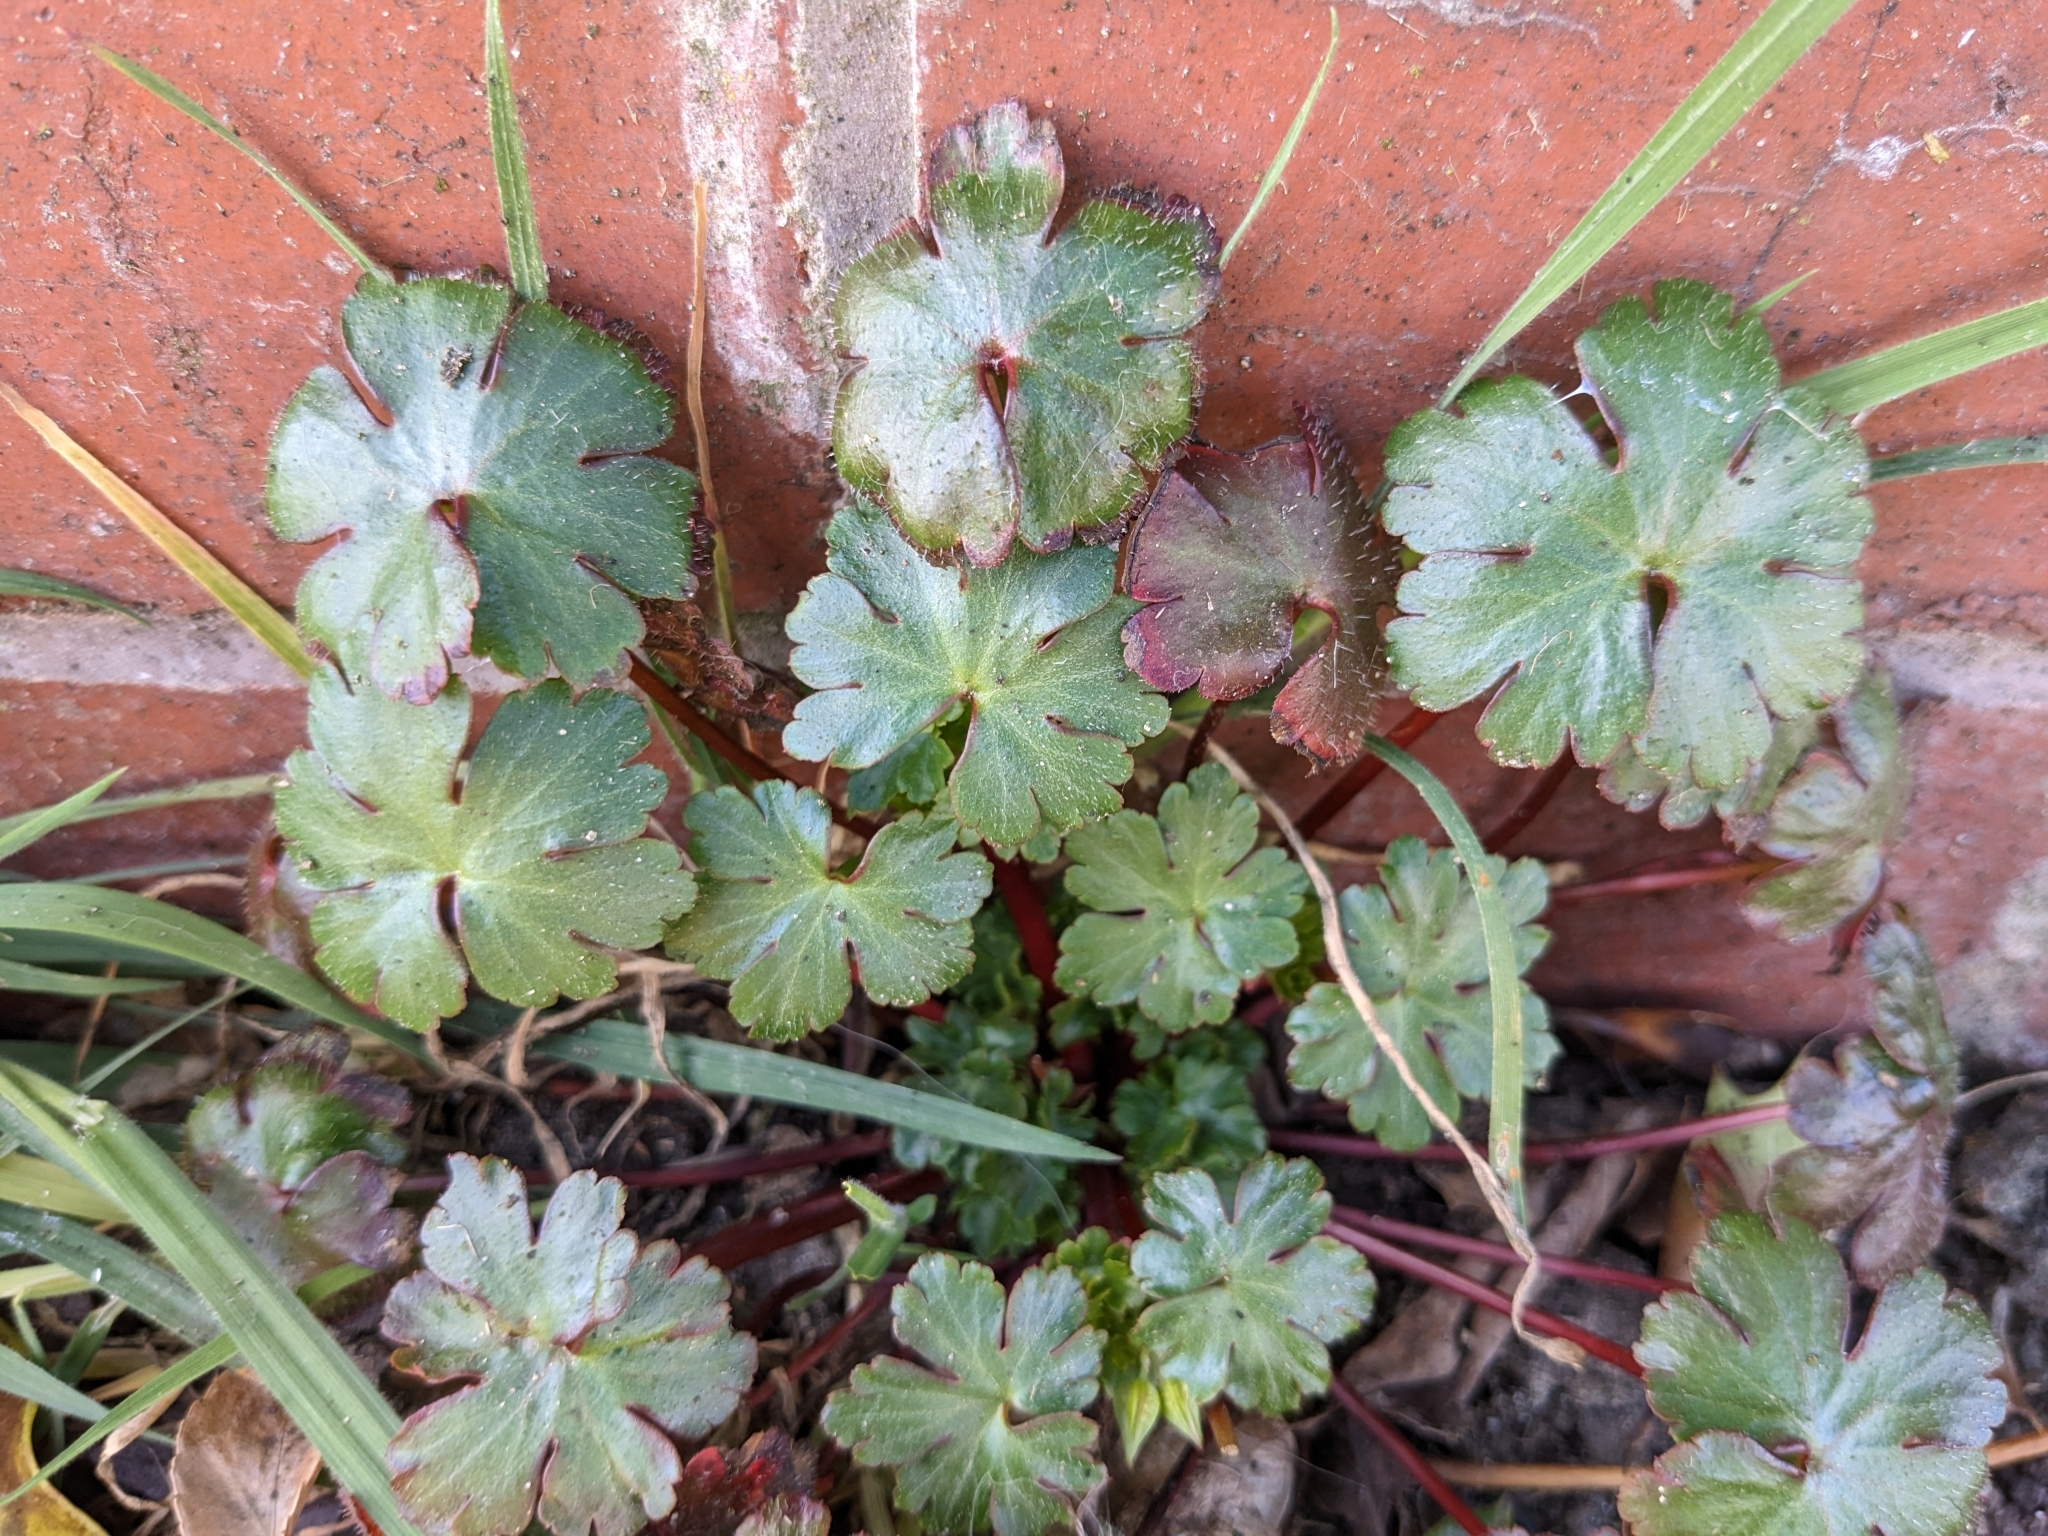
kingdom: Plantae
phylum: Tracheophyta
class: Magnoliopsida
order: Geraniales
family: Geraniaceae
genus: Geranium
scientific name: Geranium lucidum
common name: Shining crane's-bill
